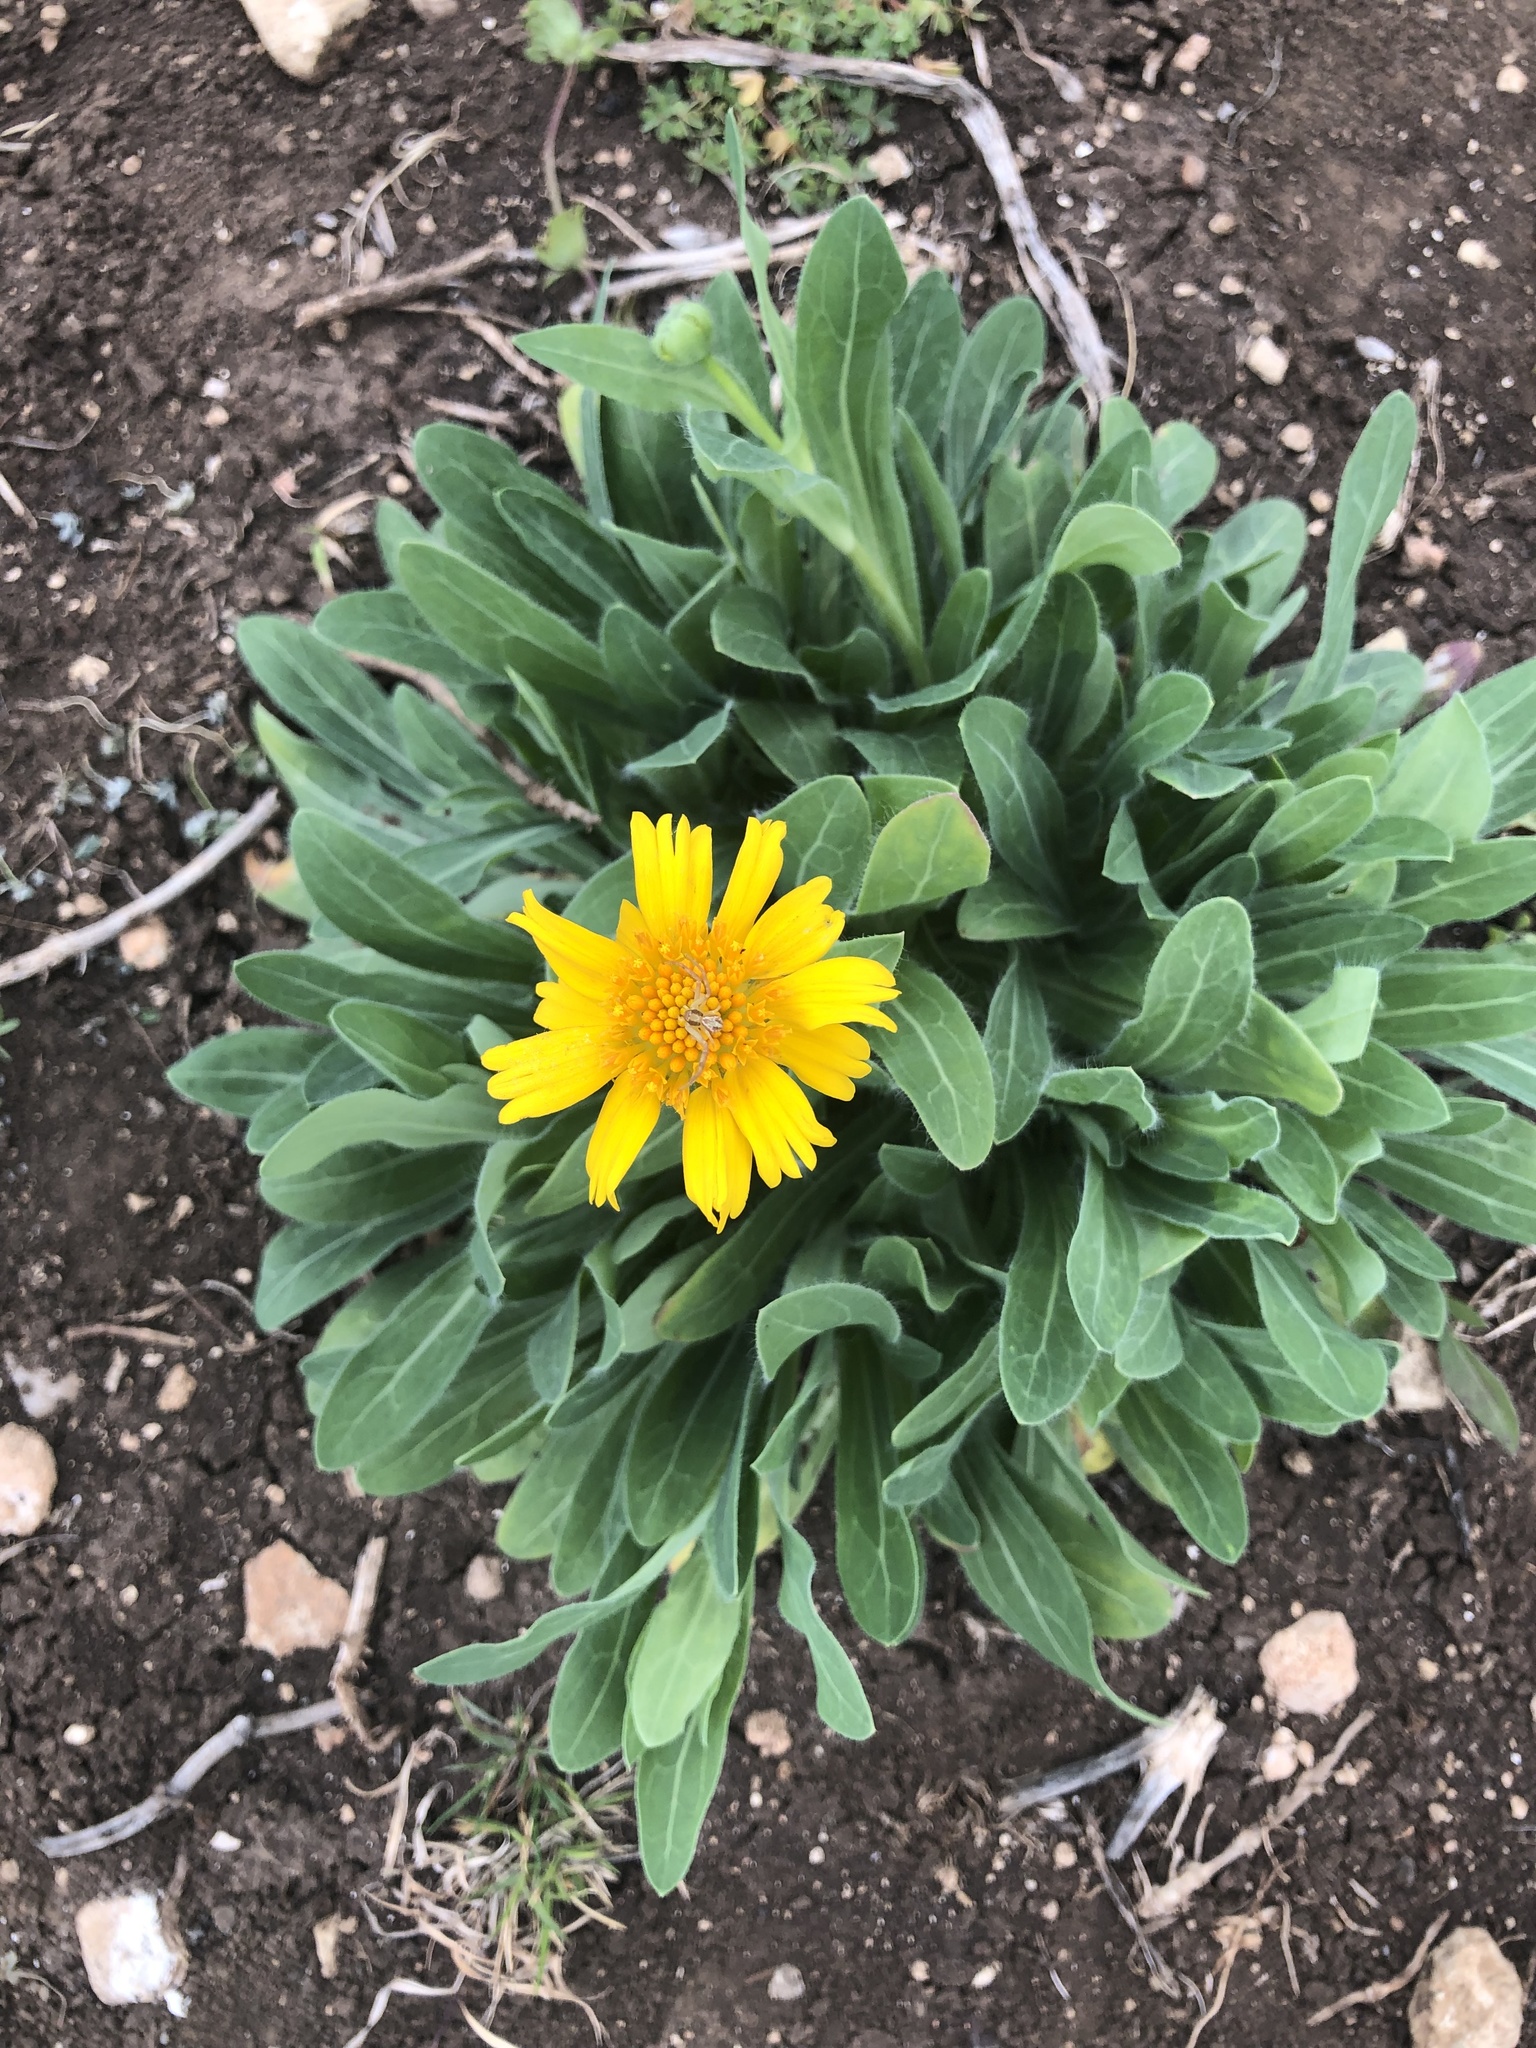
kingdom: Plantae
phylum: Tracheophyta
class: Magnoliopsida
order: Asterales
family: Asteraceae
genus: Amblyolepis
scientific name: Amblyolepis setigera
